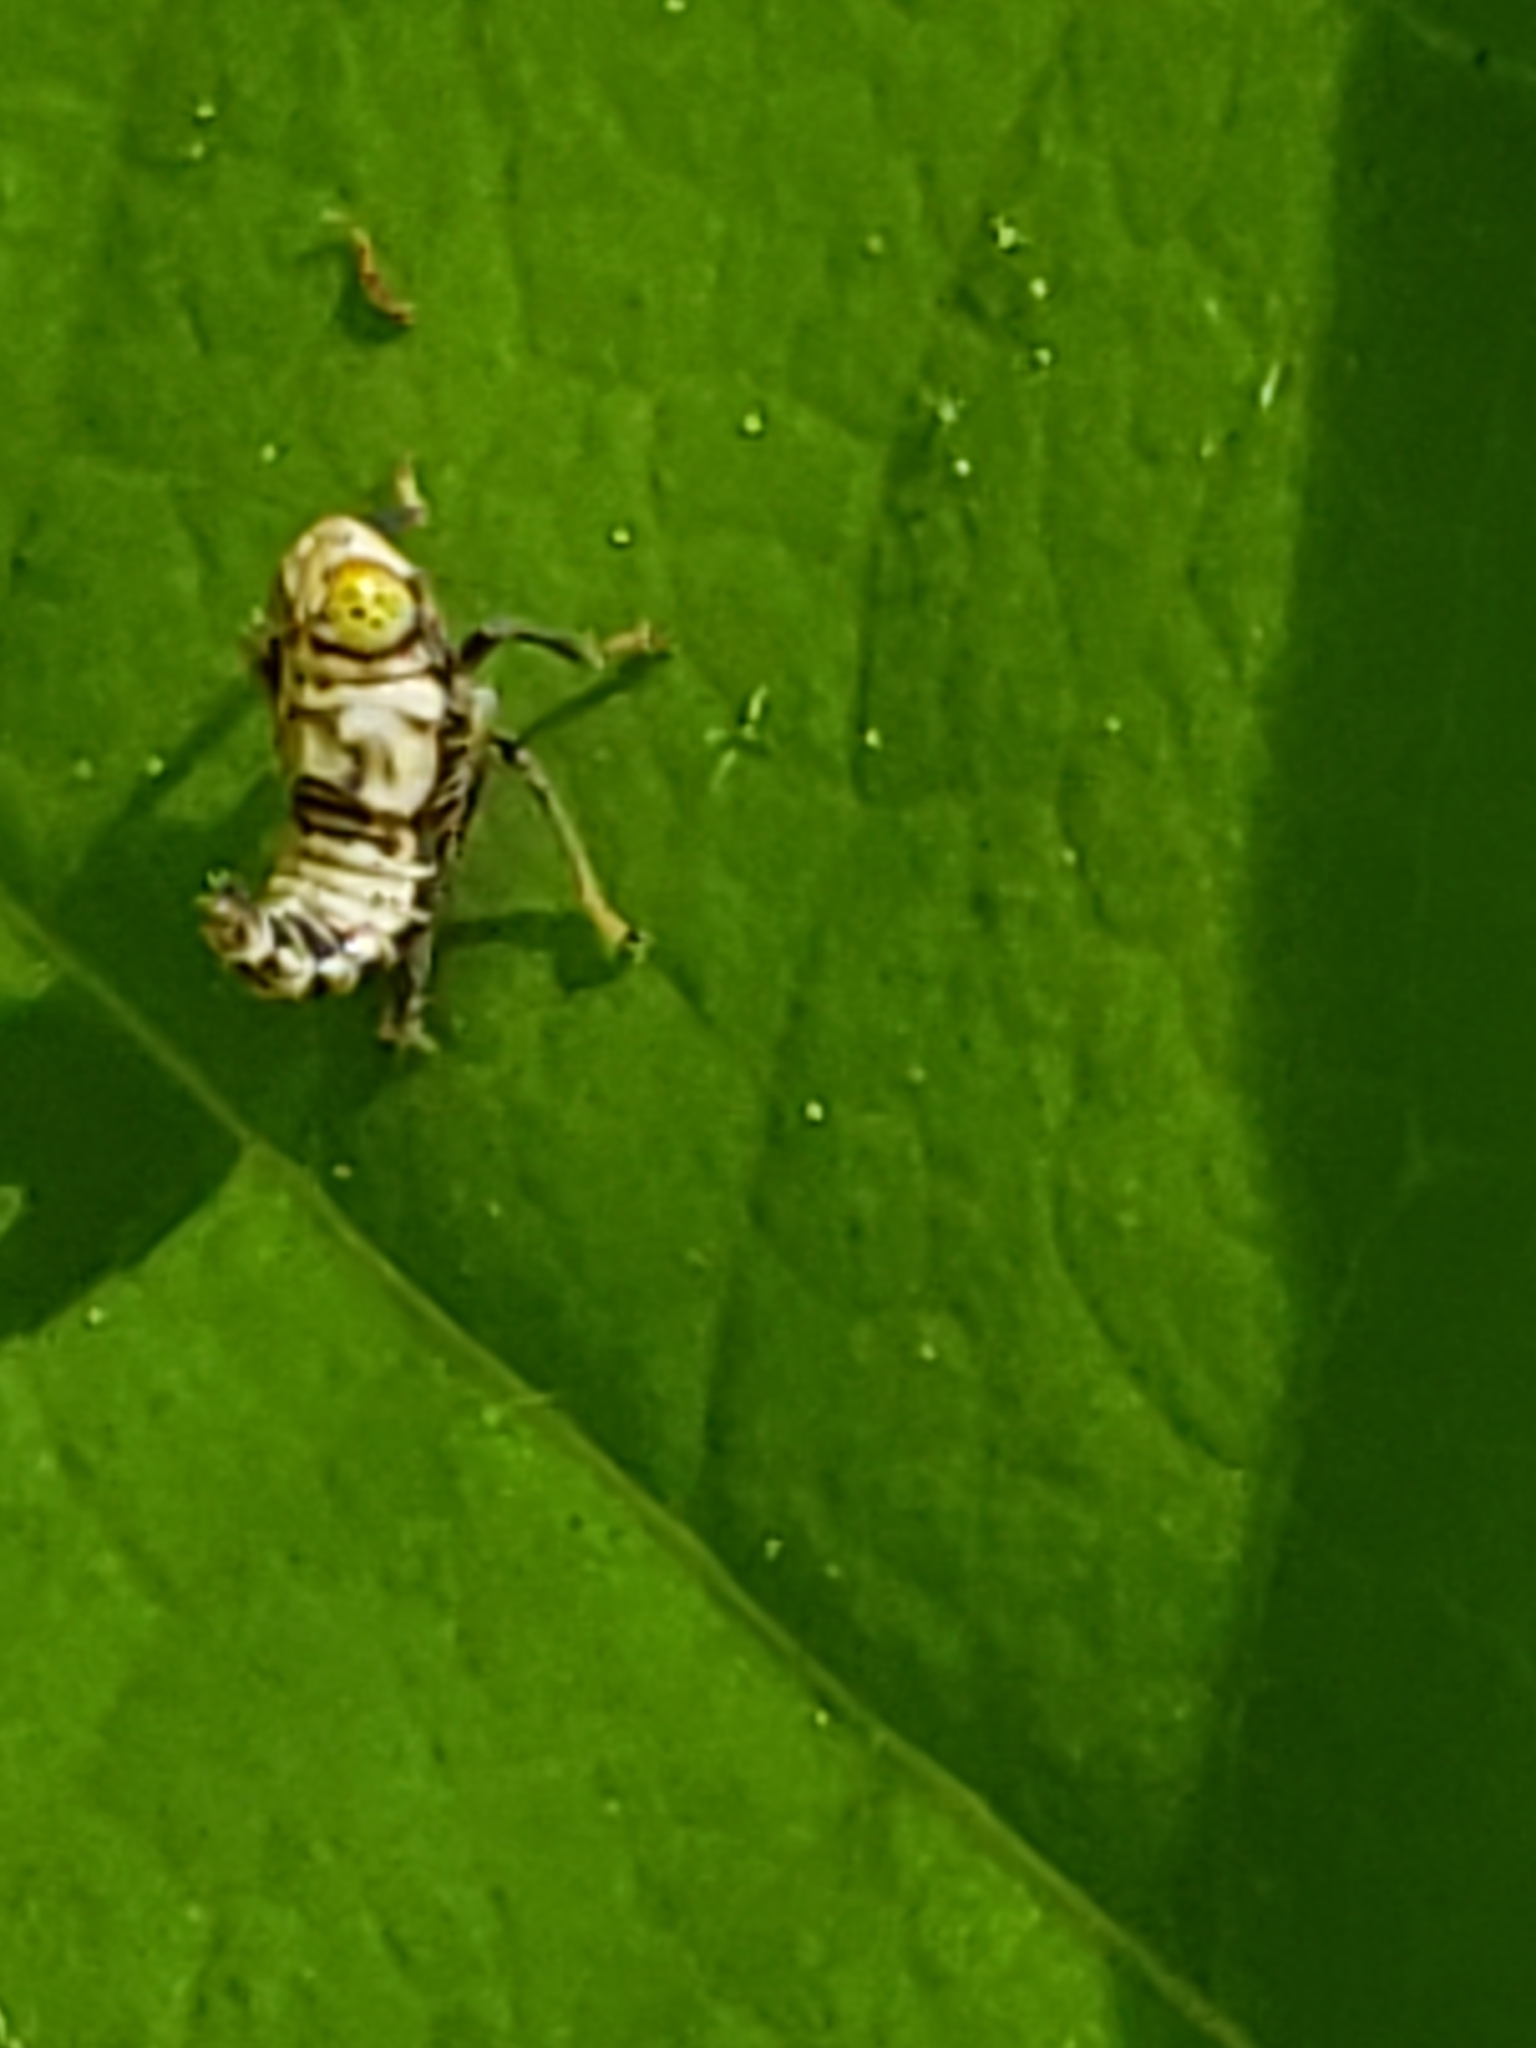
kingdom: Animalia
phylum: Arthropoda
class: Insecta
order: Hemiptera
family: Cicadellidae
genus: Jikradia
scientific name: Jikradia olitoria
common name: Coppery leafhopper
